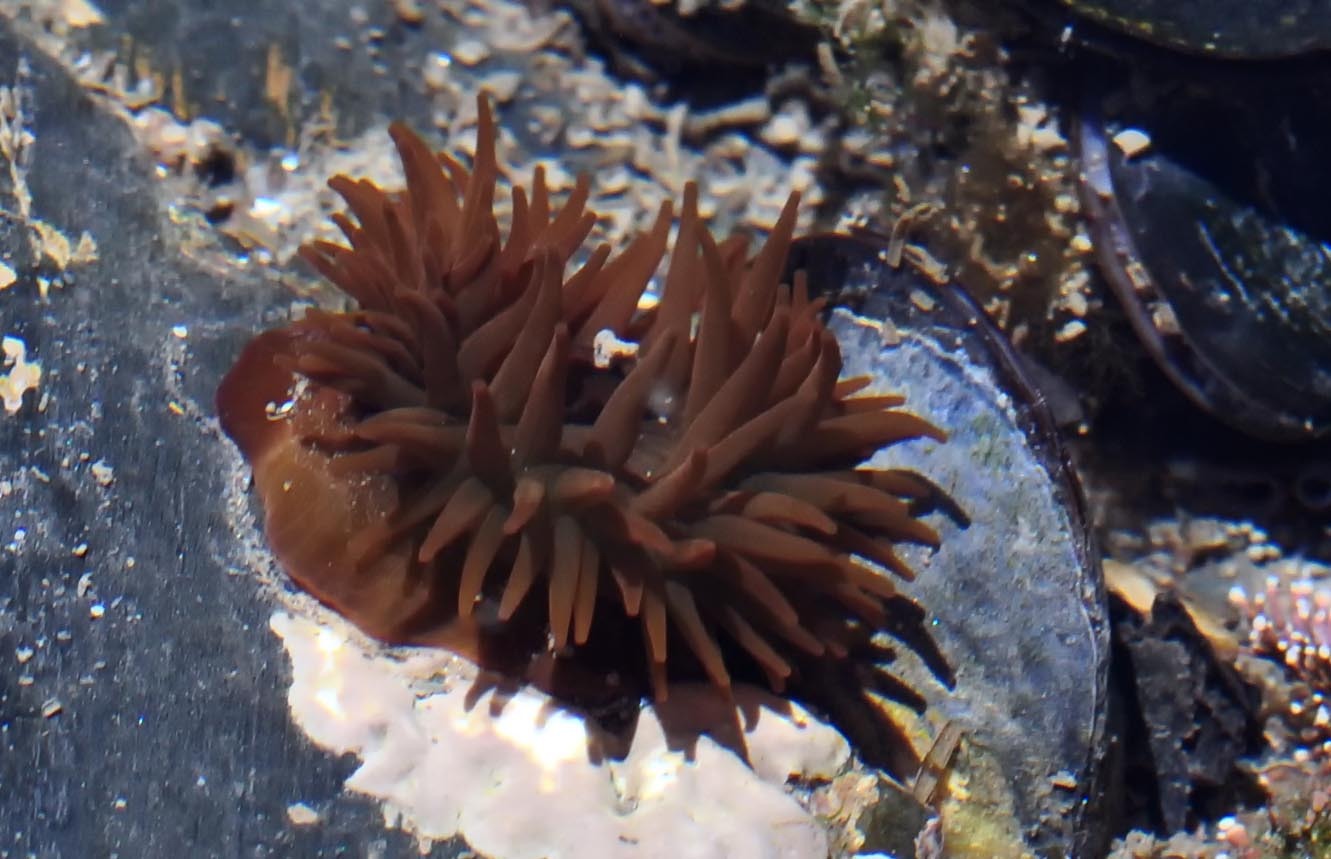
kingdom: Animalia
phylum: Cnidaria
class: Anthozoa
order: Actiniaria
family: Actiniidae
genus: Actinia
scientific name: Actinia equina
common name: Beadlet anemone
